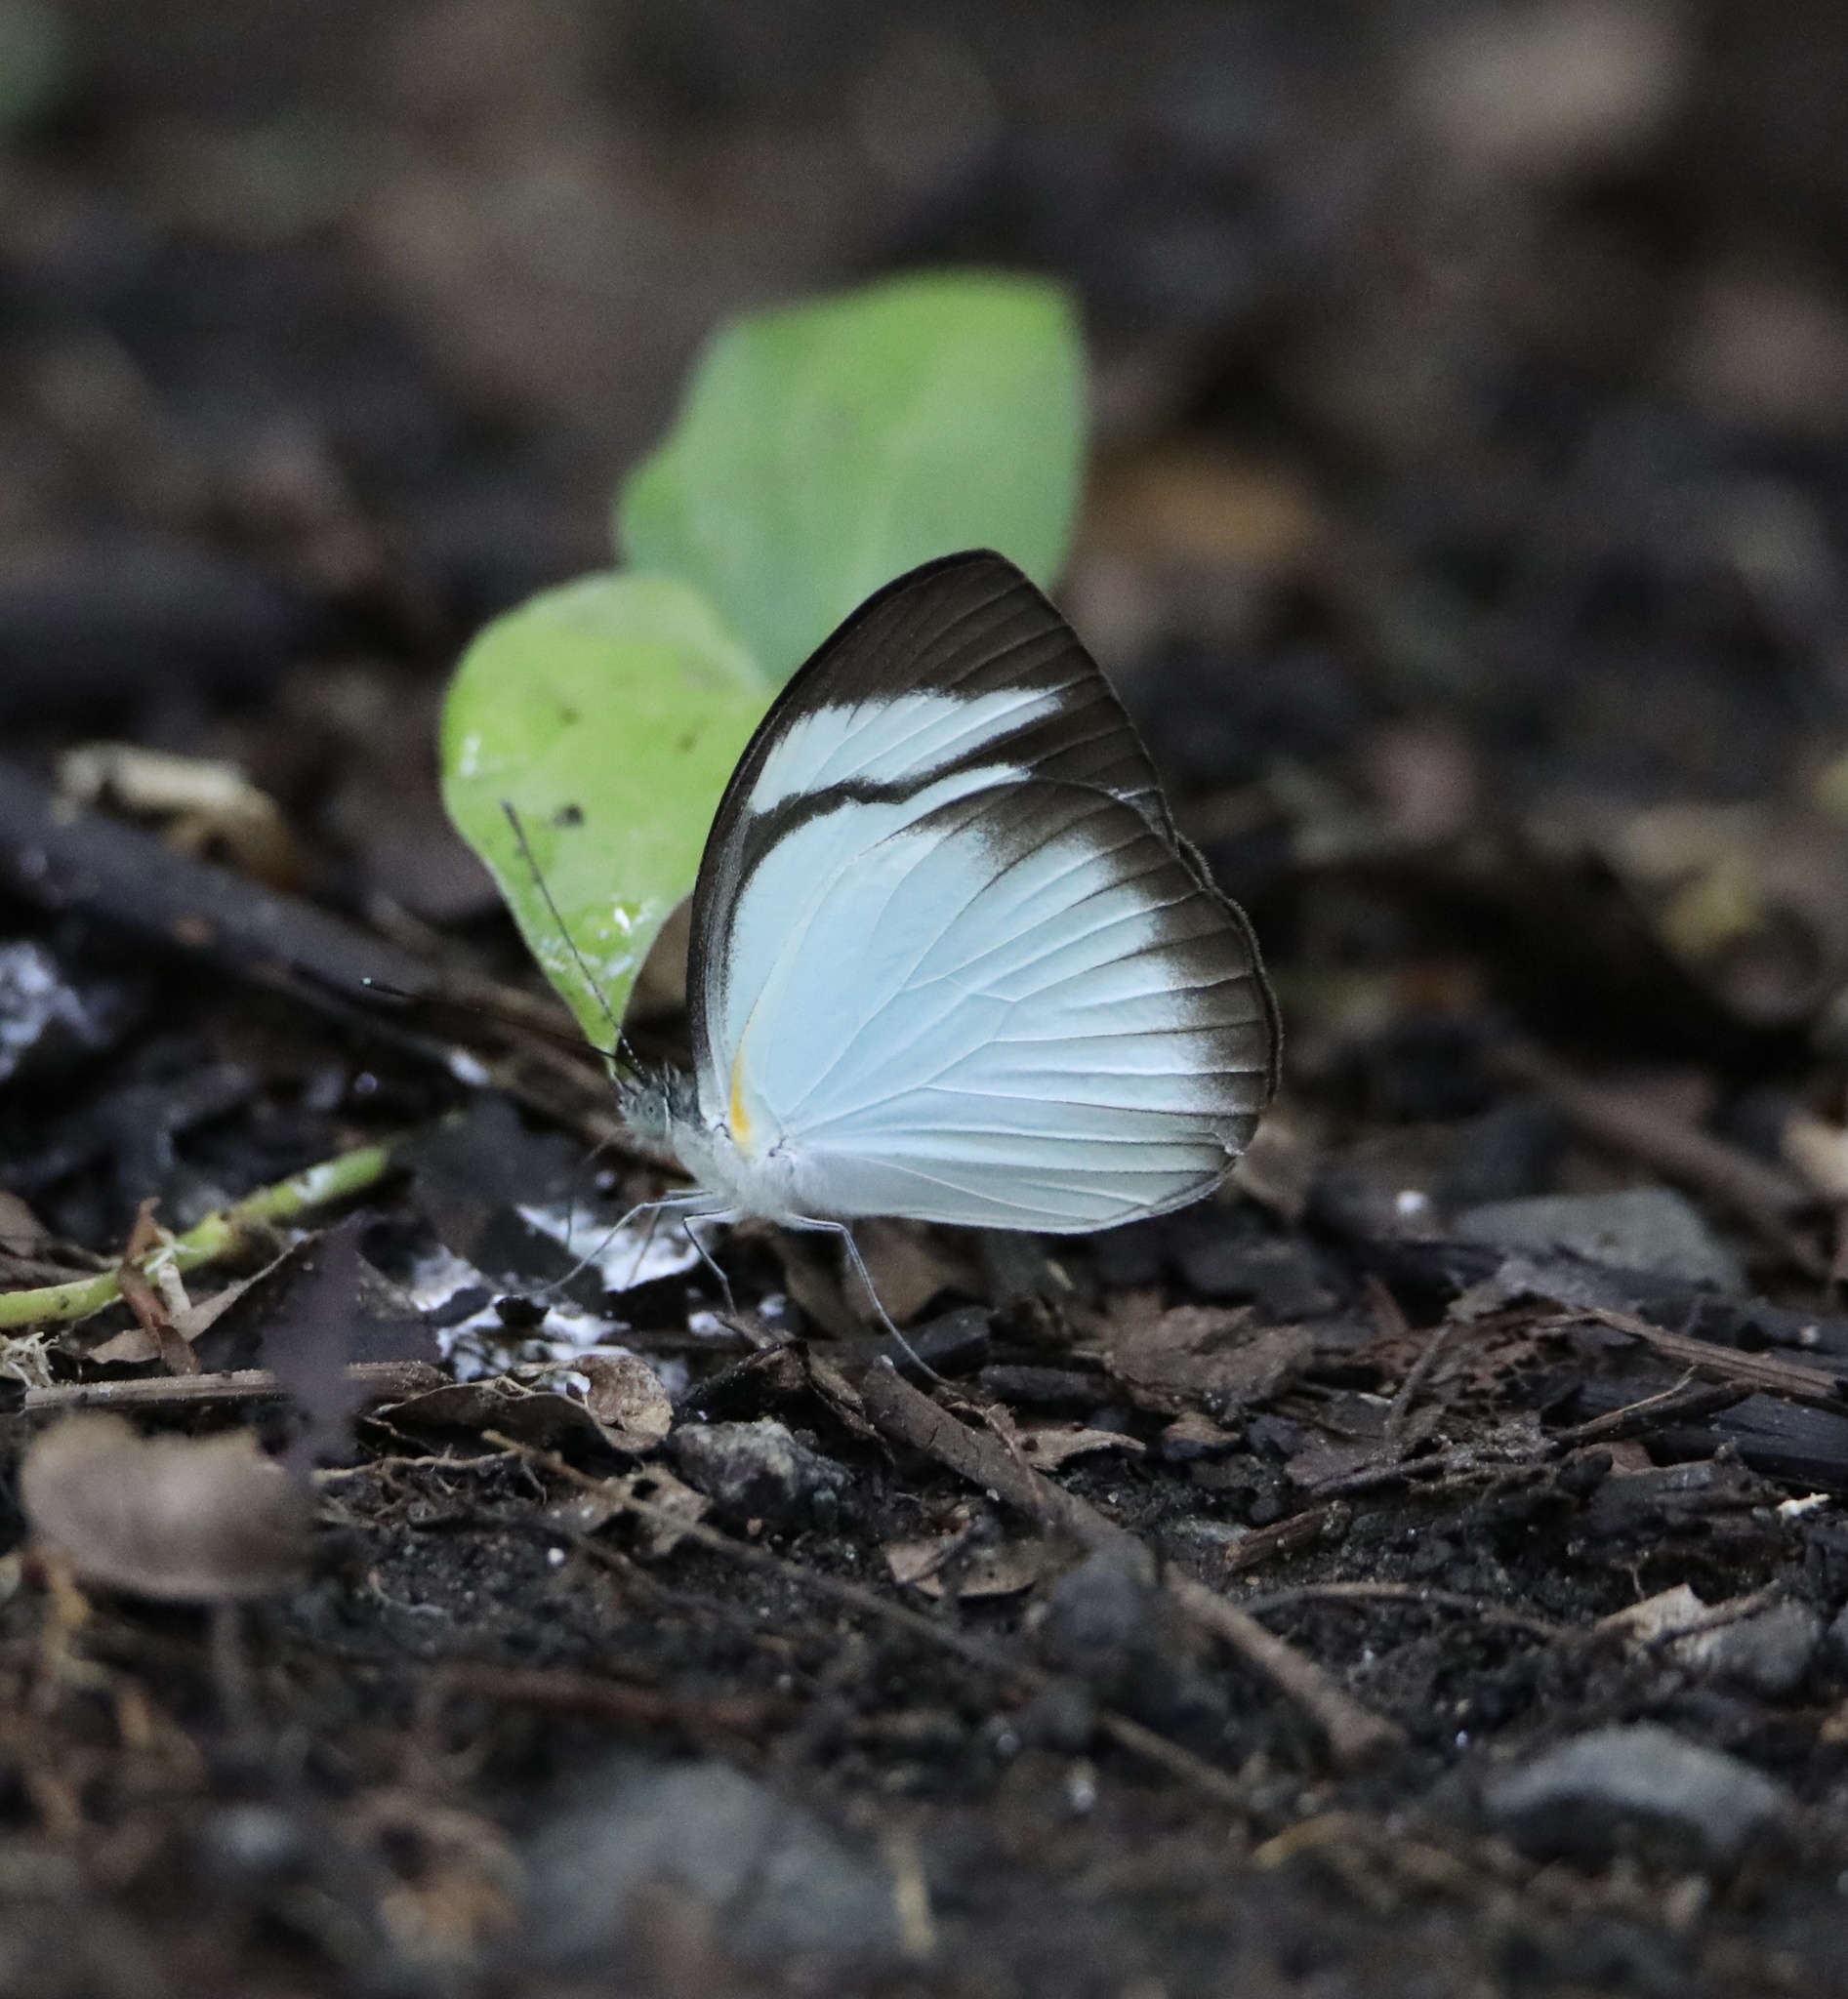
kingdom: Animalia
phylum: Arthropoda
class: Insecta
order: Lepidoptera
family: Pieridae
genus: Itaballia
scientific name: Itaballia demophile
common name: Cross-barred white
